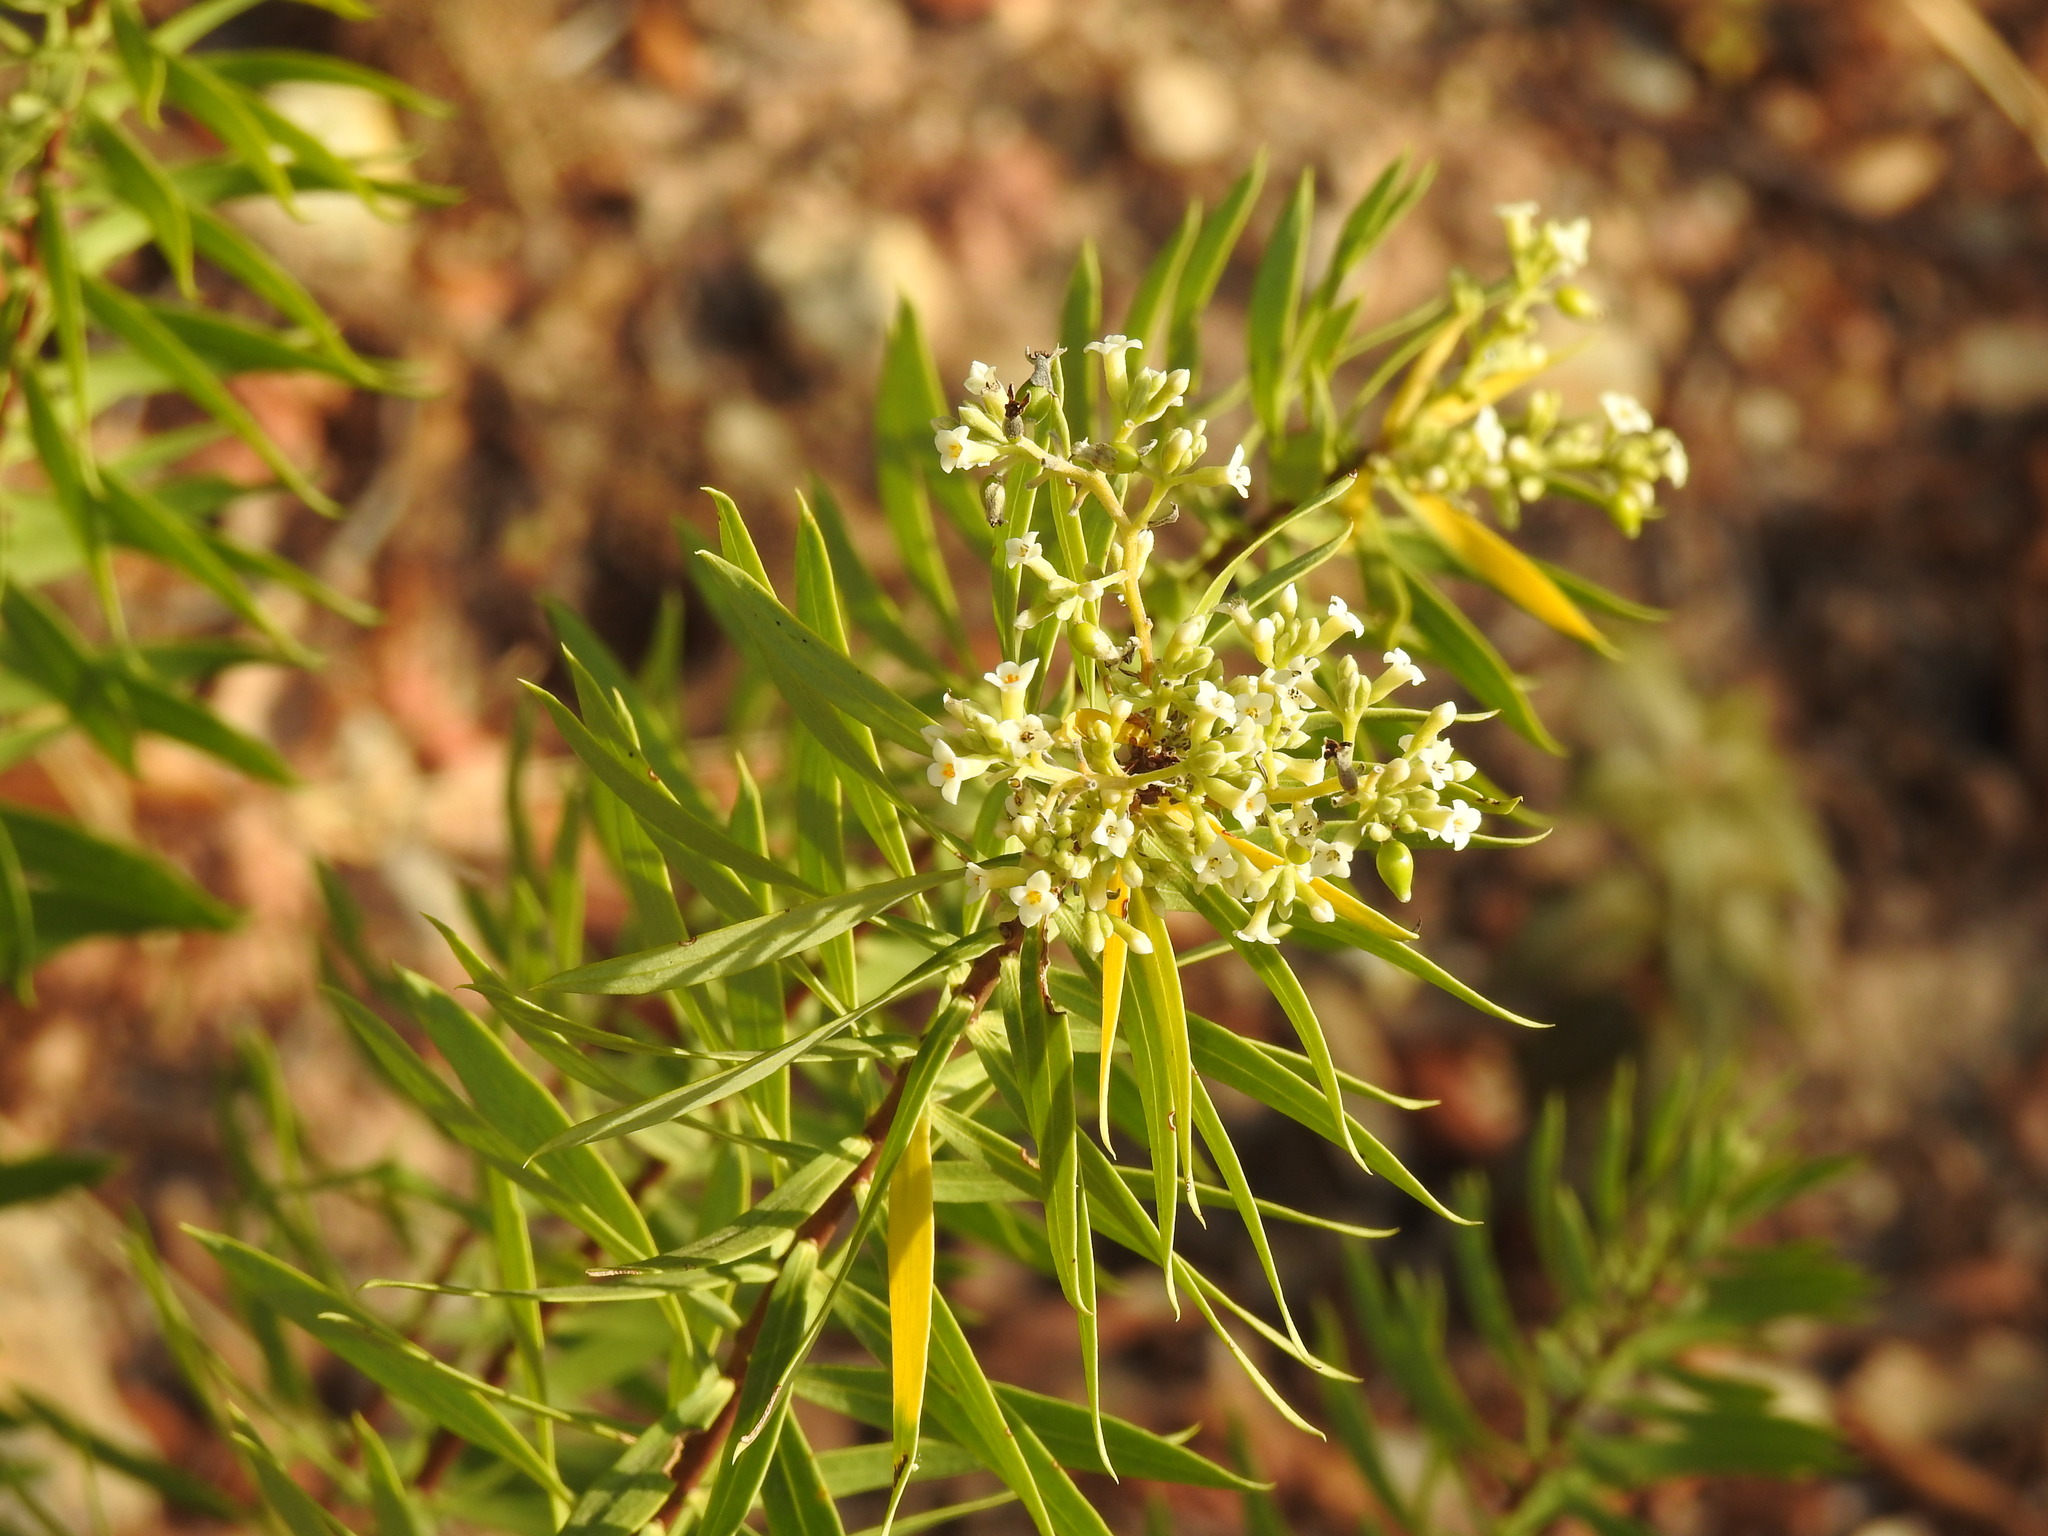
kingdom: Plantae
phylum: Tracheophyta
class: Magnoliopsida
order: Malvales
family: Thymelaeaceae
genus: Daphne
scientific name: Daphne gnidium
